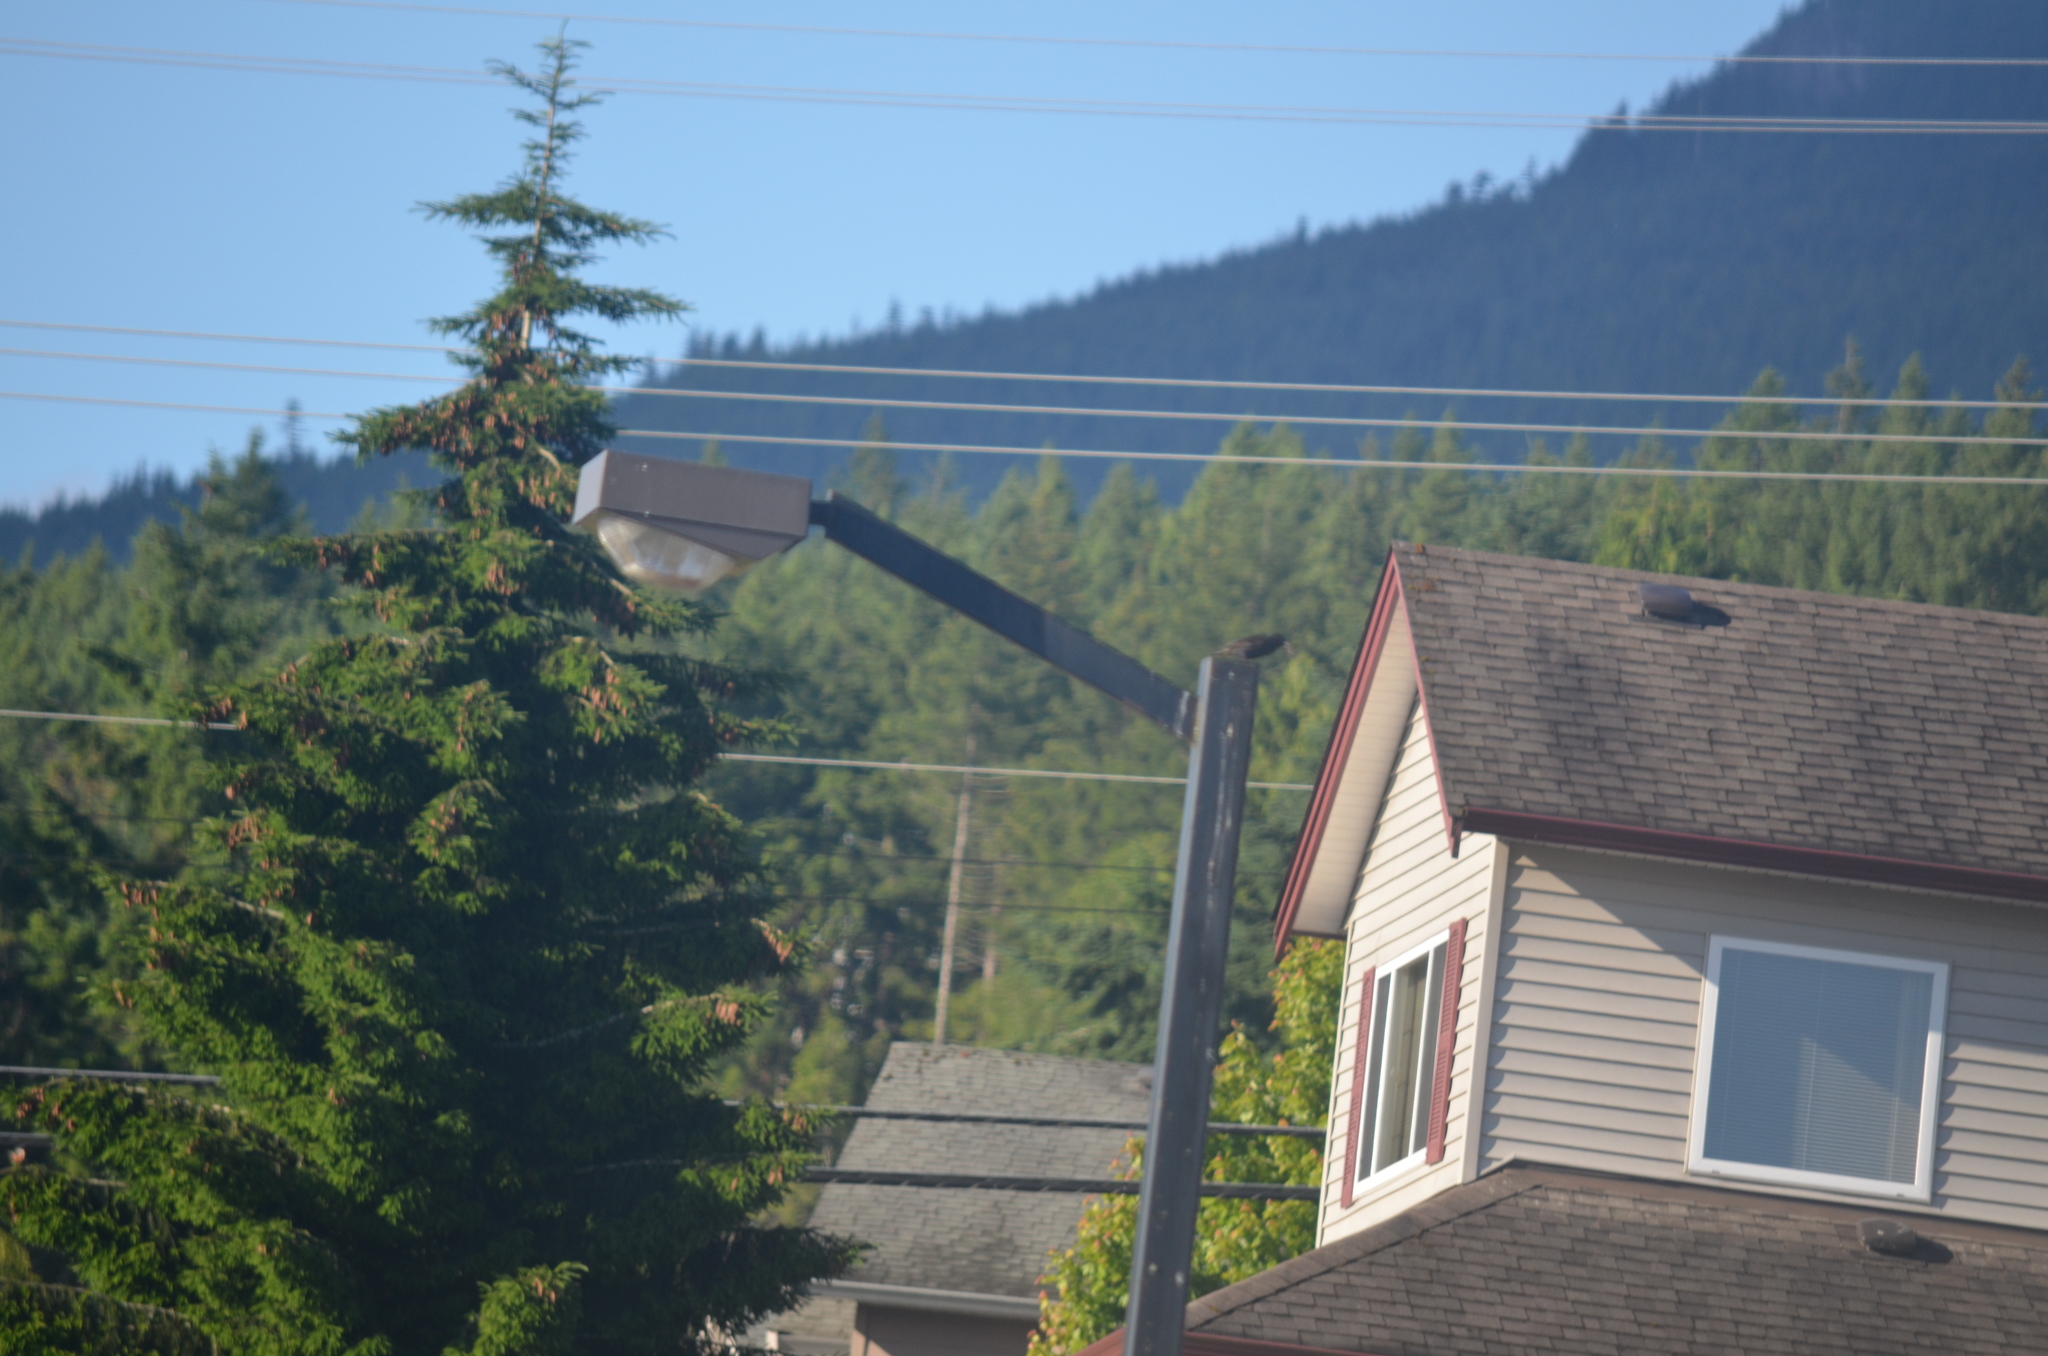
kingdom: Animalia
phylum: Chordata
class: Aves
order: Passeriformes
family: Sturnidae
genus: Sturnus
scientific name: Sturnus vulgaris
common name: Common starling
